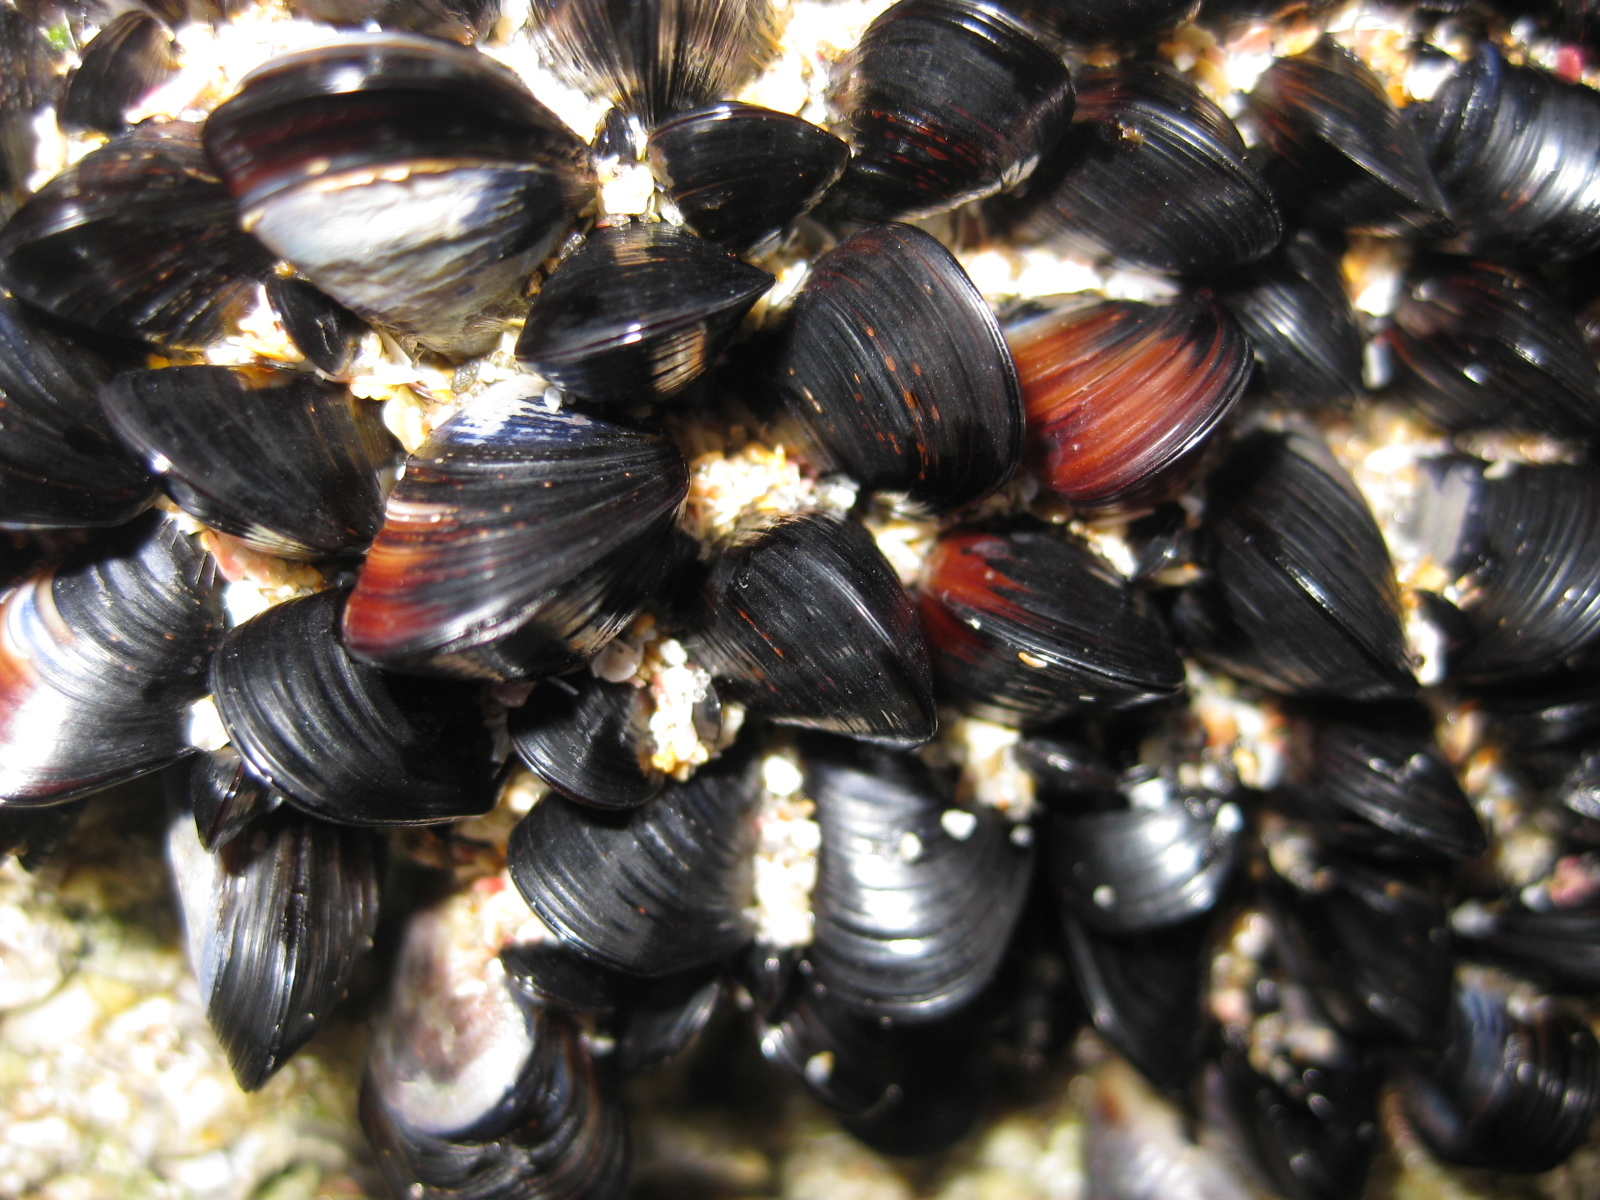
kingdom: Animalia
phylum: Mollusca
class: Bivalvia
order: Mytilida
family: Mytilidae
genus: Xenostrobus
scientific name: Xenostrobus neozelanicus
